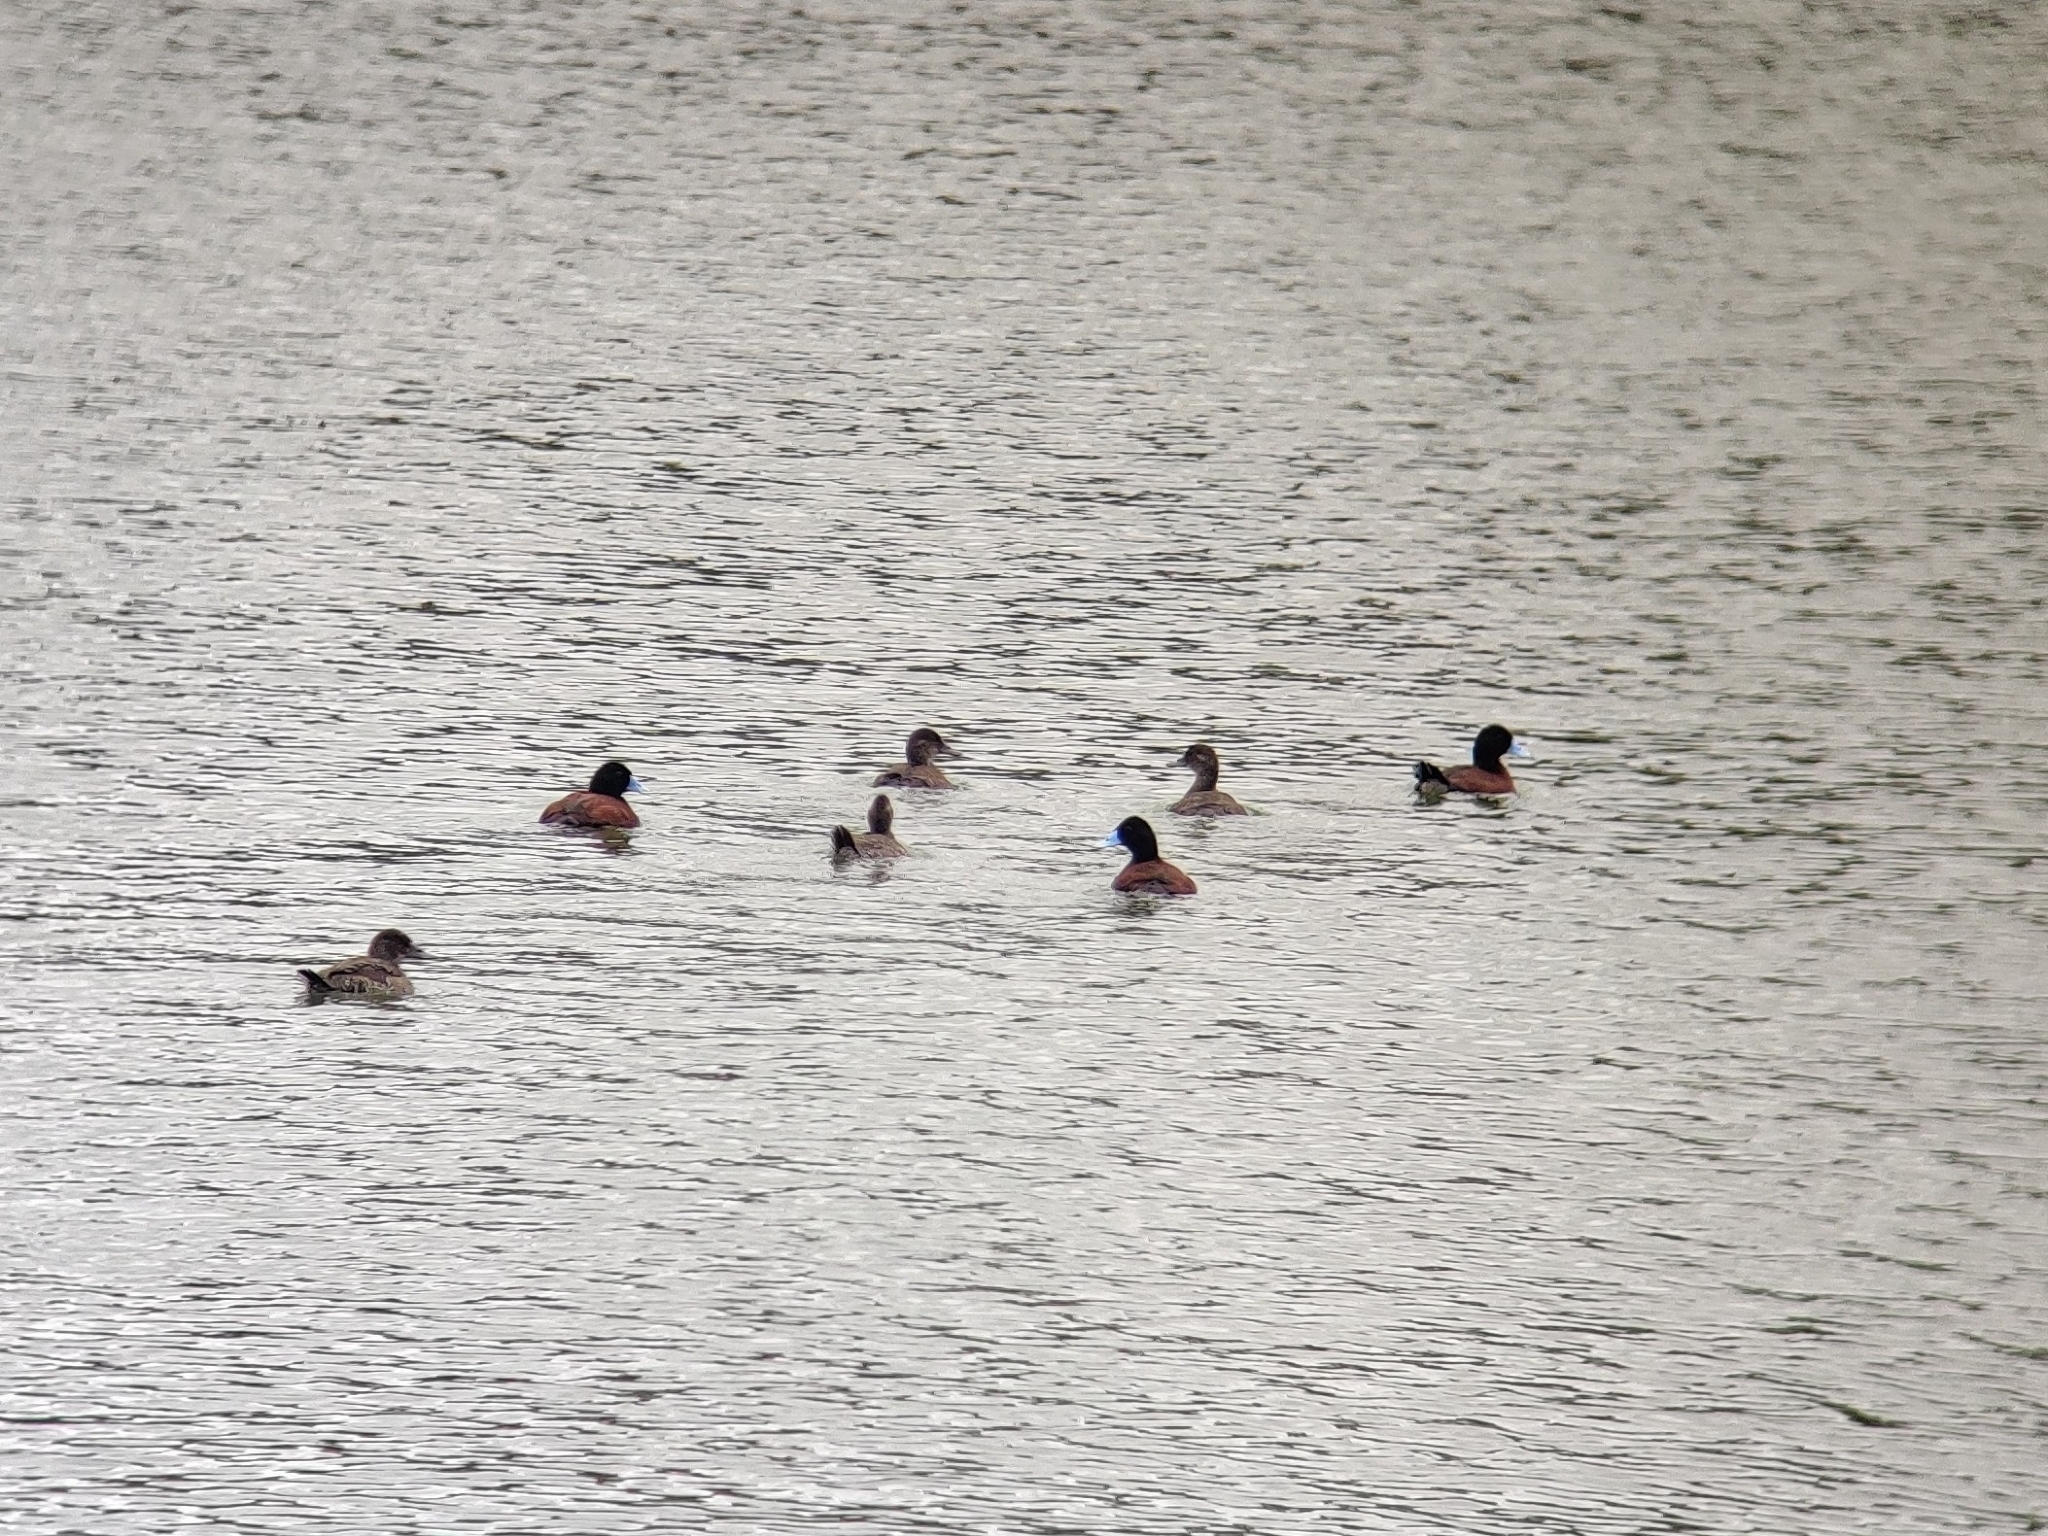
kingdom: Animalia
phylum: Chordata
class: Aves
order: Anseriformes
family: Anatidae
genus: Oxyura
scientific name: Oxyura australis
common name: Blue-billed duck
